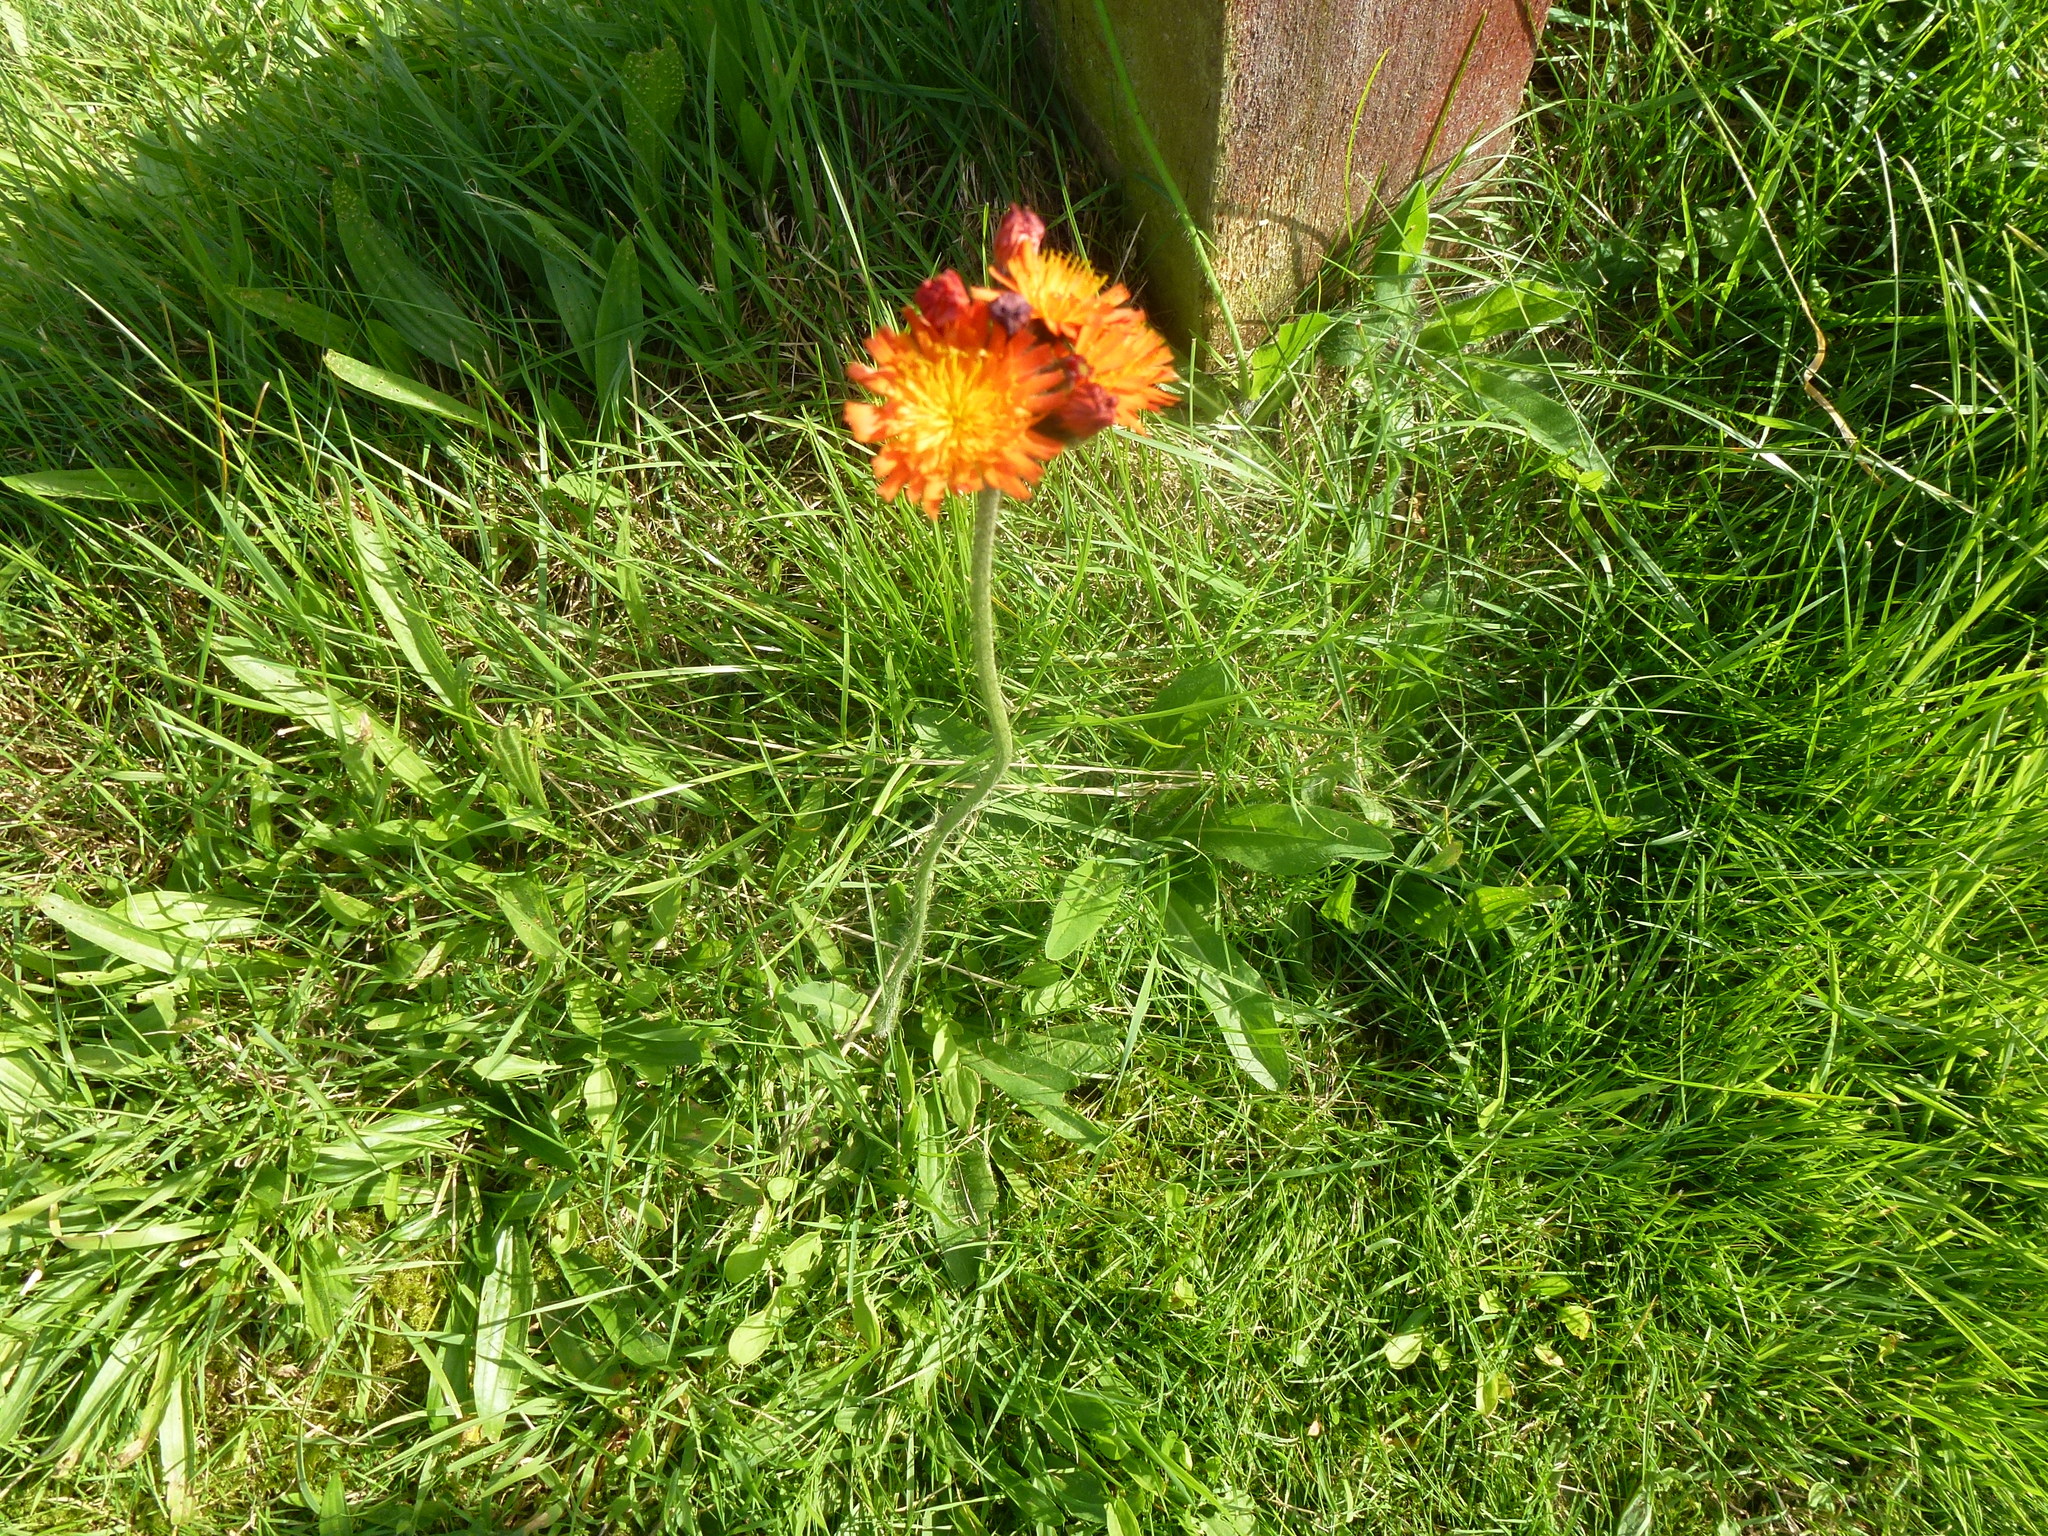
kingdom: Plantae
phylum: Tracheophyta
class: Magnoliopsida
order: Asterales
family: Asteraceae
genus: Pilosella
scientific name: Pilosella aurantiaca
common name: Fox-and-cubs
